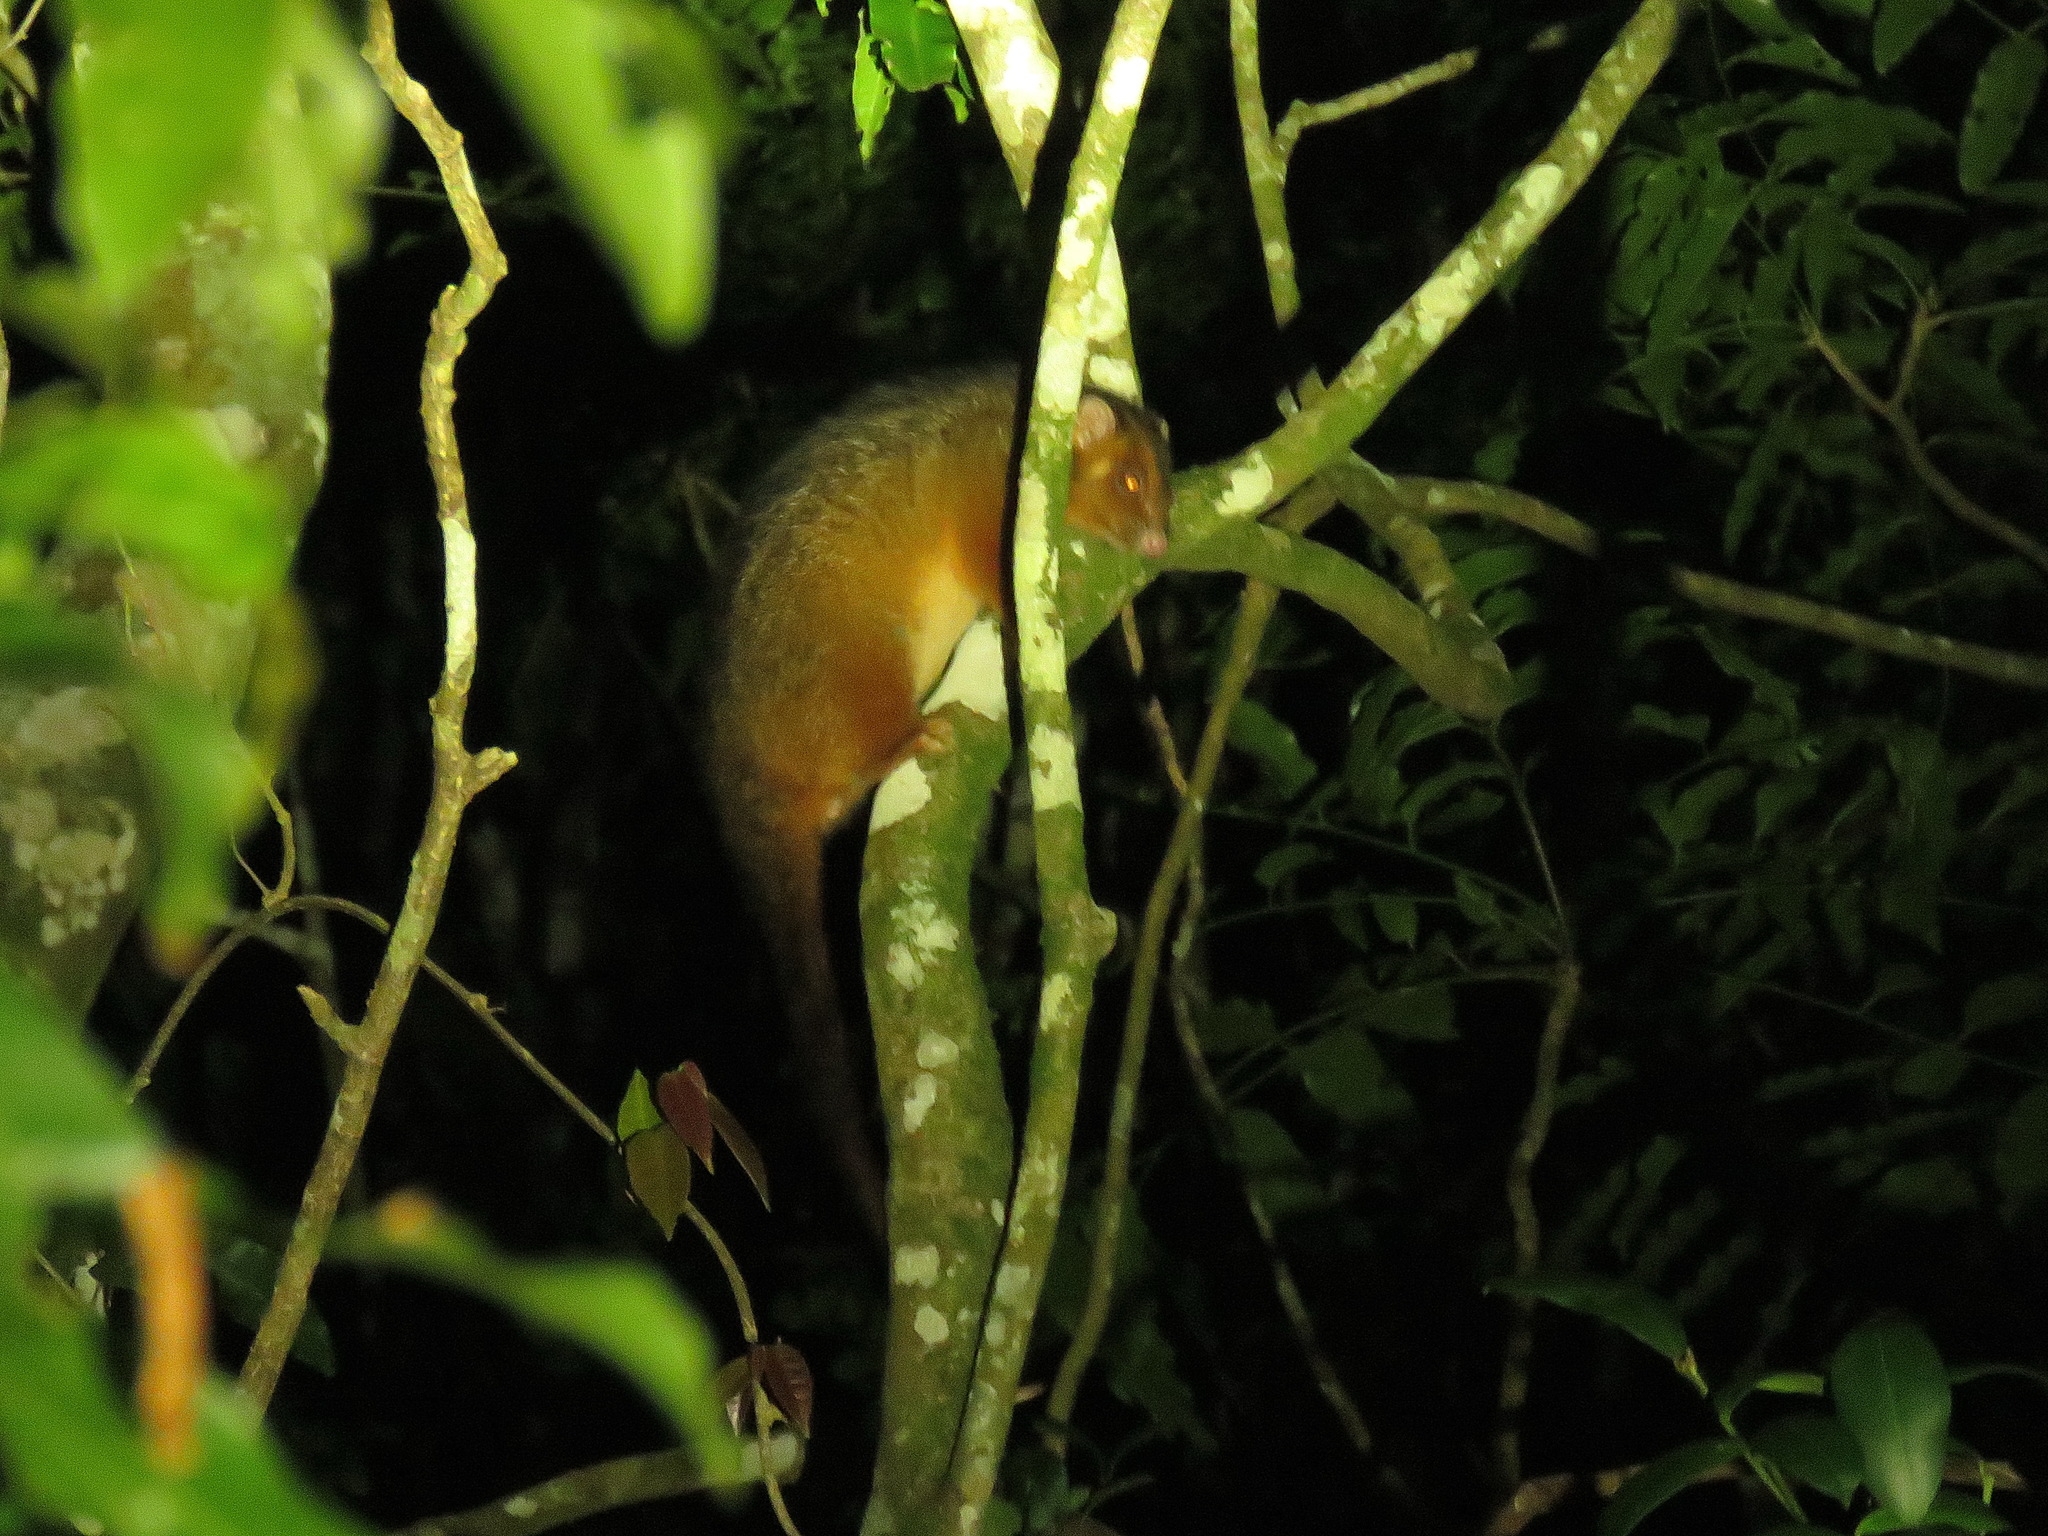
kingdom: Animalia
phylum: Chordata
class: Mammalia
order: Diprotodontia
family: Pseudocheiridae
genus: Pseudocheirus
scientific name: Pseudocheirus peregrinus
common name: Common ringtail possum
